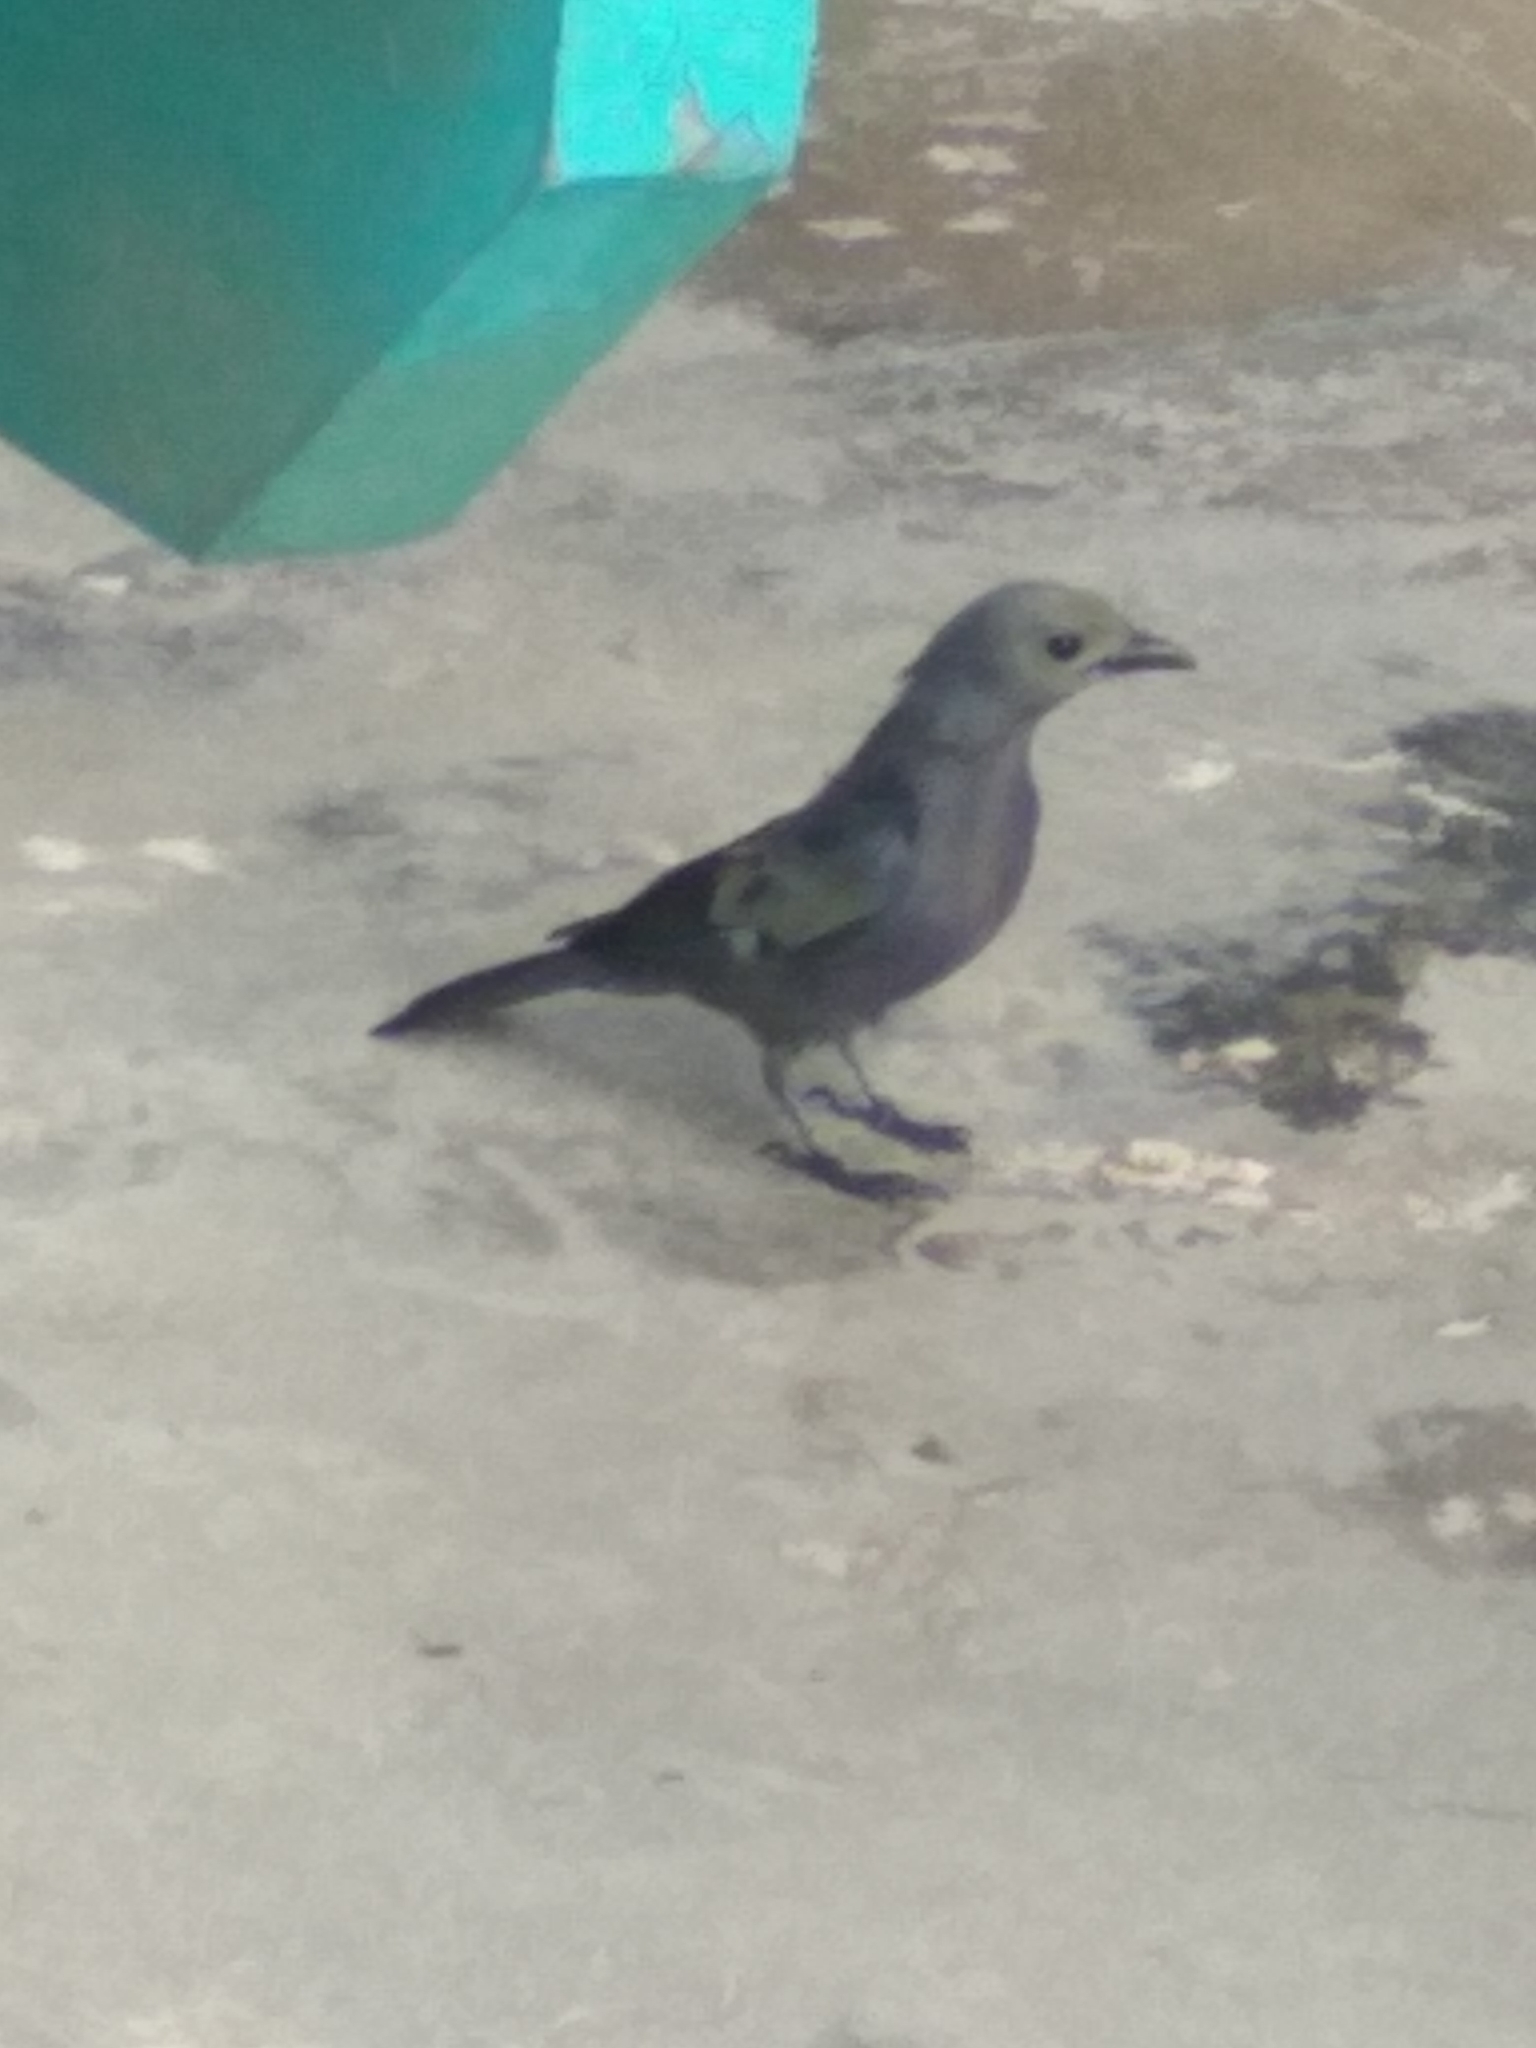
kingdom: Animalia
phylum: Chordata
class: Aves
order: Passeriformes
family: Thraupidae
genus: Thraupis
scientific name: Thraupis palmarum
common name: Palm tanager
